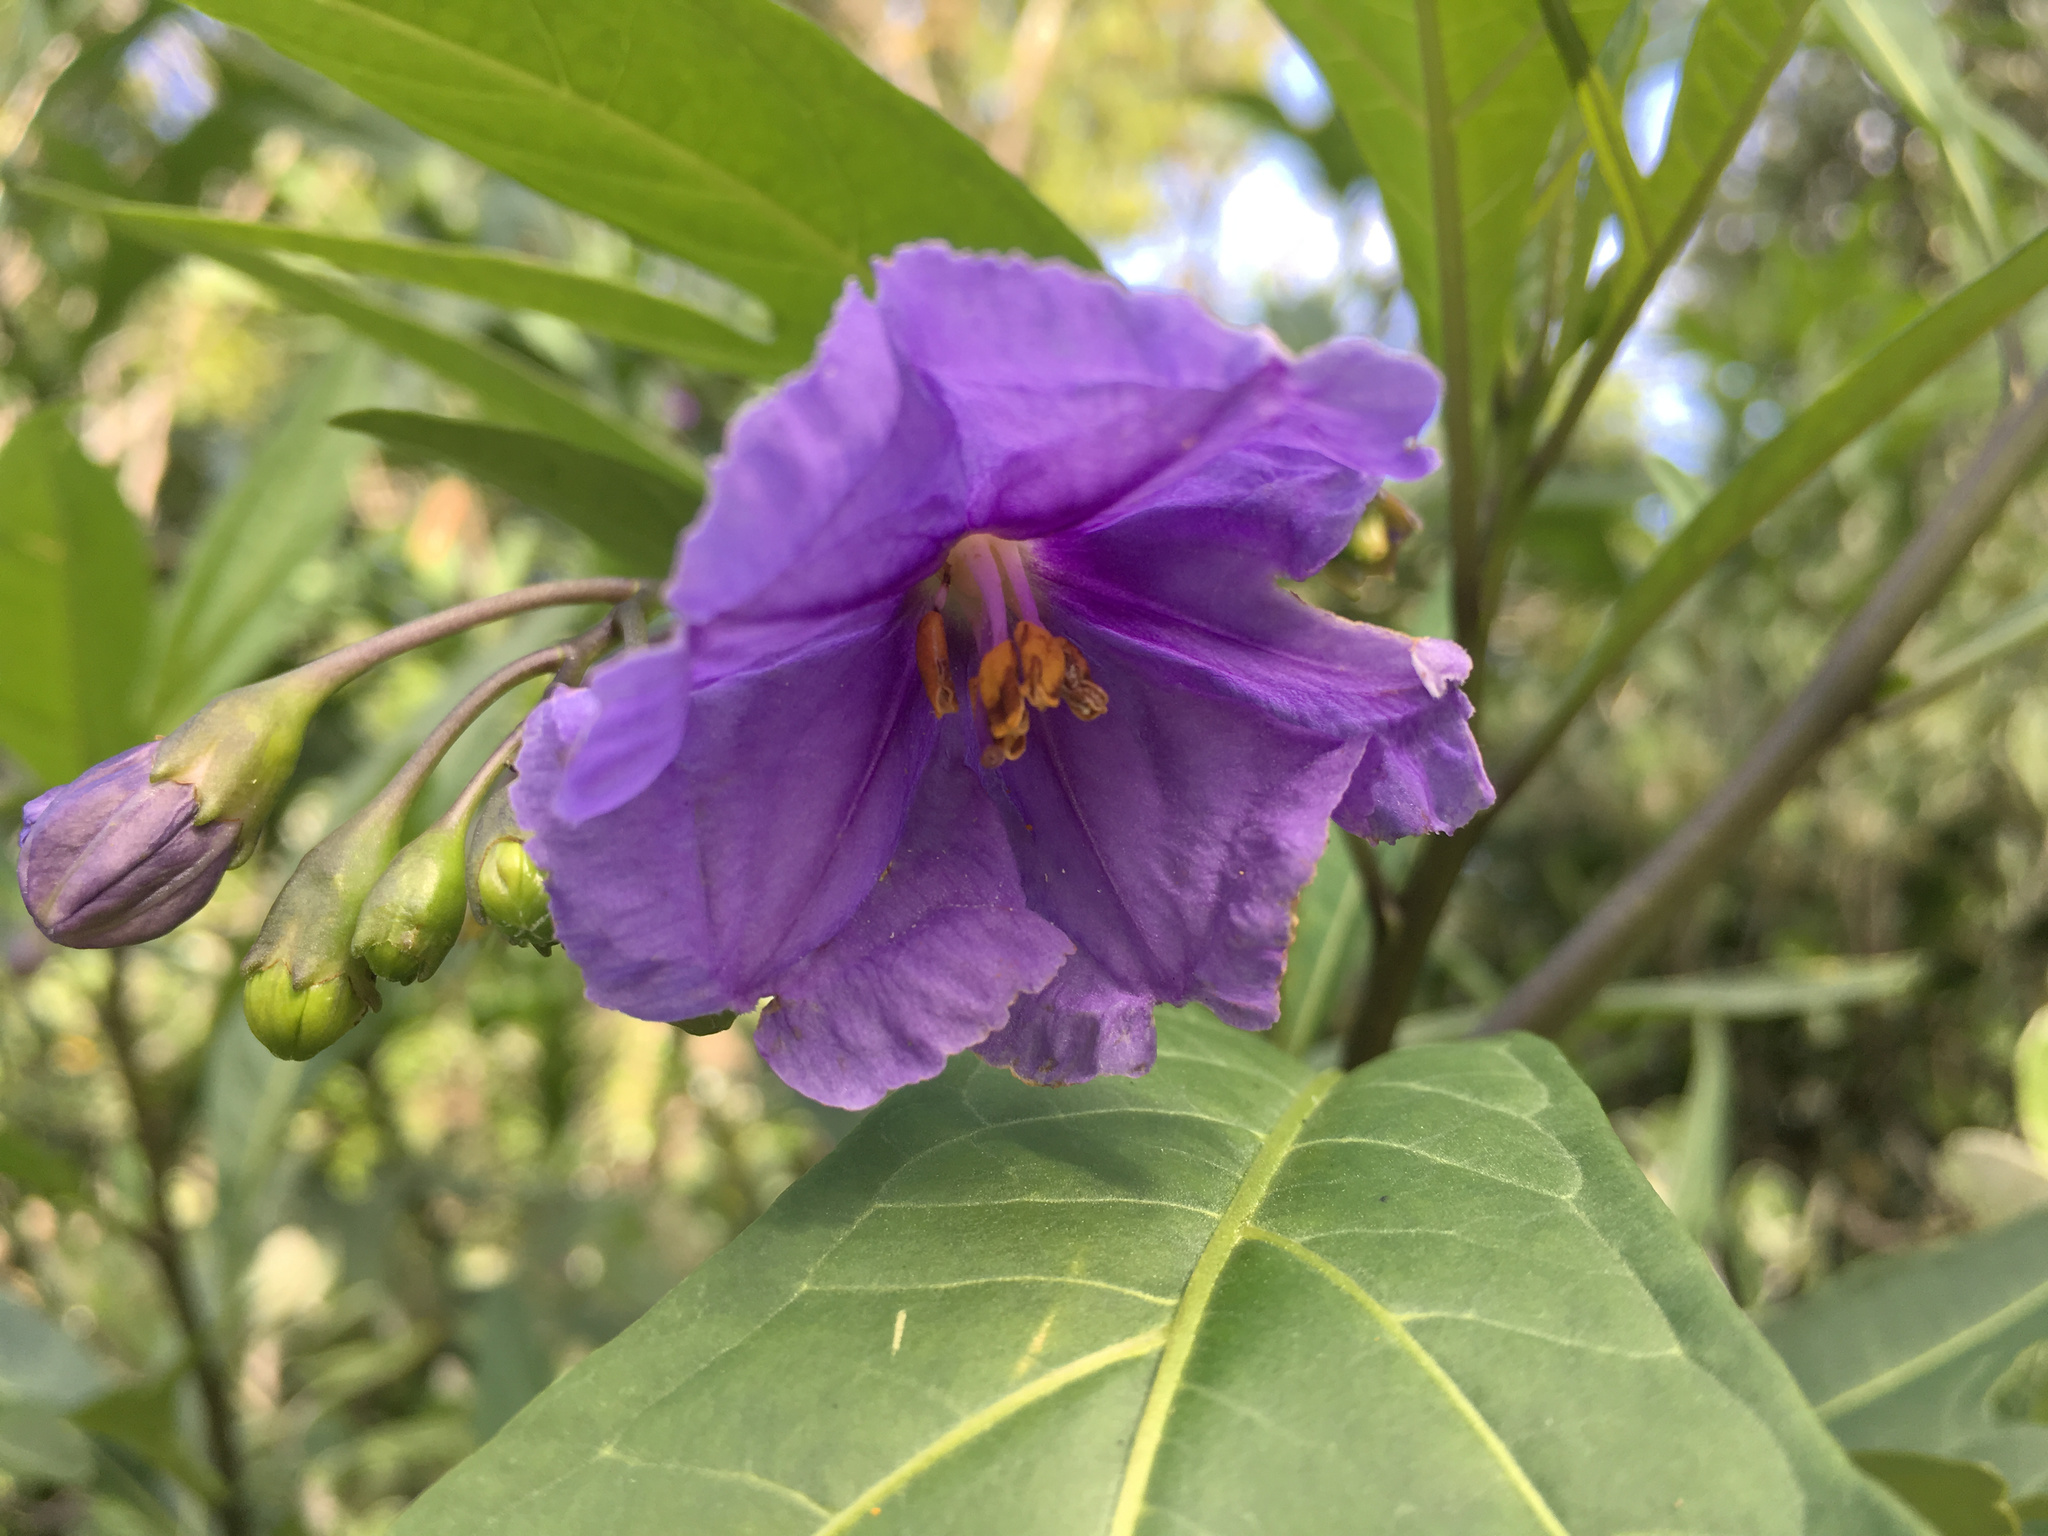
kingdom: Plantae
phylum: Tracheophyta
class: Magnoliopsida
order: Solanales
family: Solanaceae
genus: Solanum
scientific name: Solanum laciniatum
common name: Kangaroo-apple
